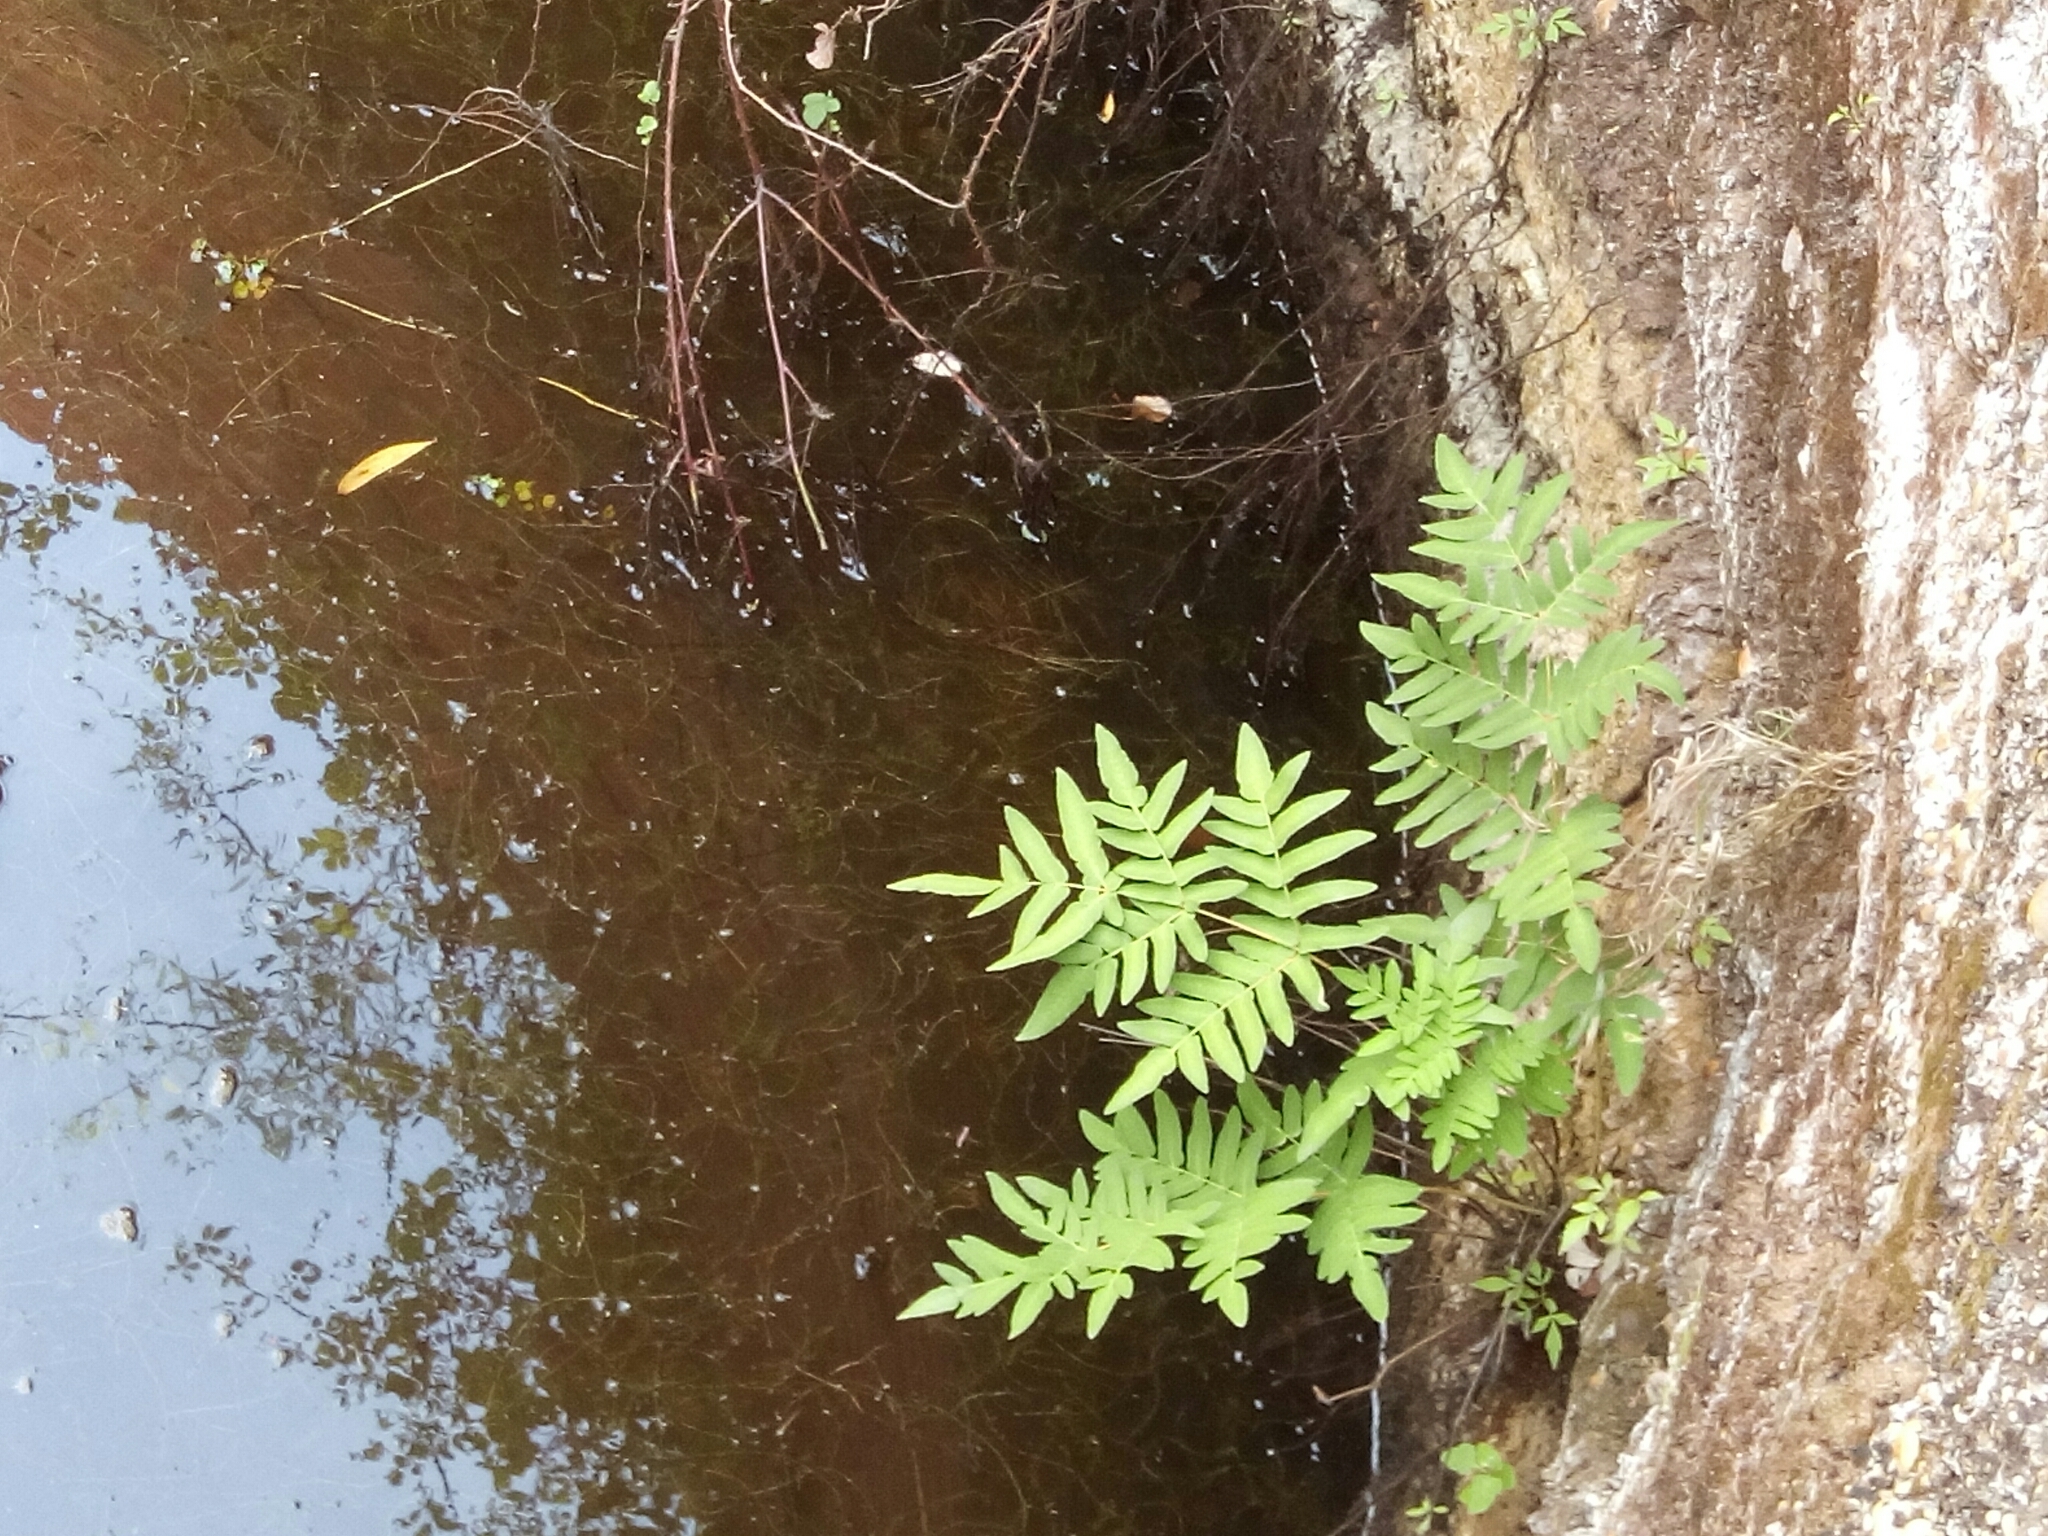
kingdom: Plantae
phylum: Tracheophyta
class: Polypodiopsida
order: Osmundales
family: Osmundaceae
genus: Osmunda
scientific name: Osmunda regalis
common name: Royal fern
